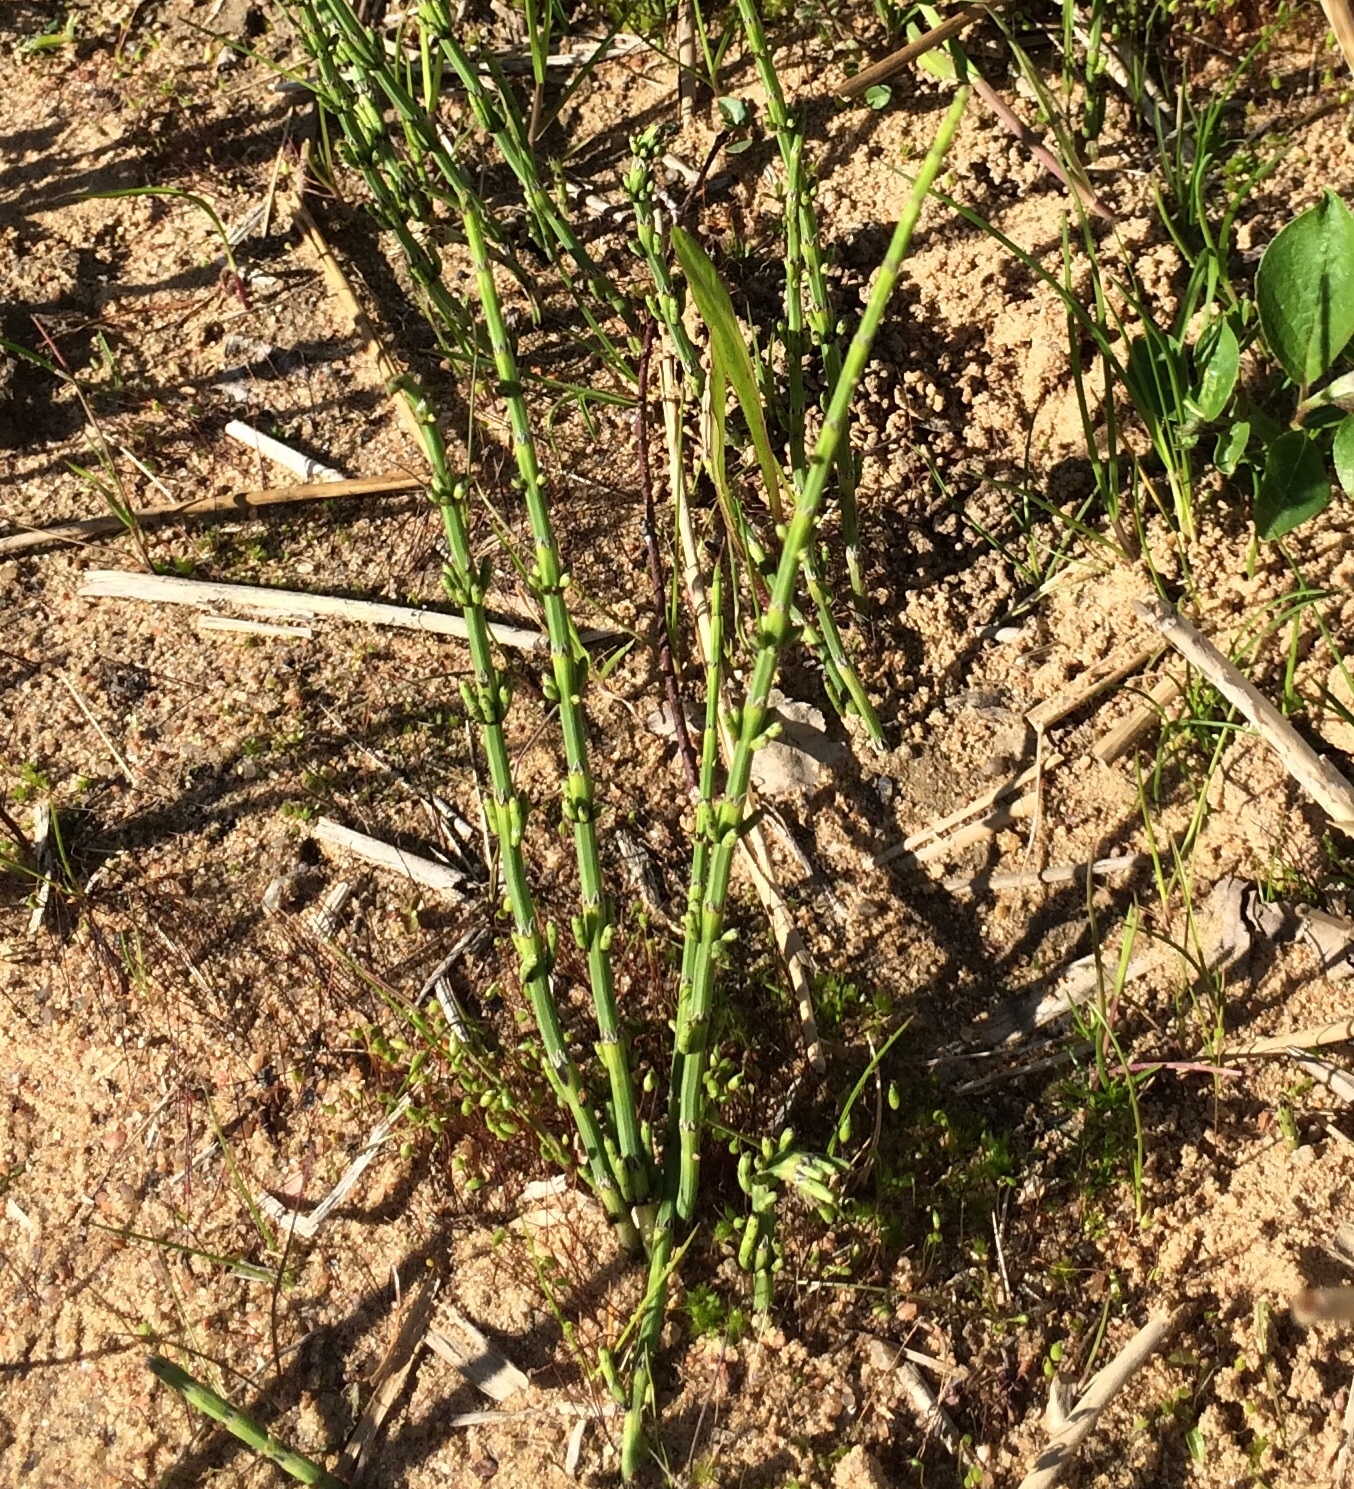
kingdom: Plantae
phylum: Tracheophyta
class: Polypodiopsida
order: Equisetales
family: Equisetaceae
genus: Equisetum
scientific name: Equisetum palustre
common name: Marsh horsetail
